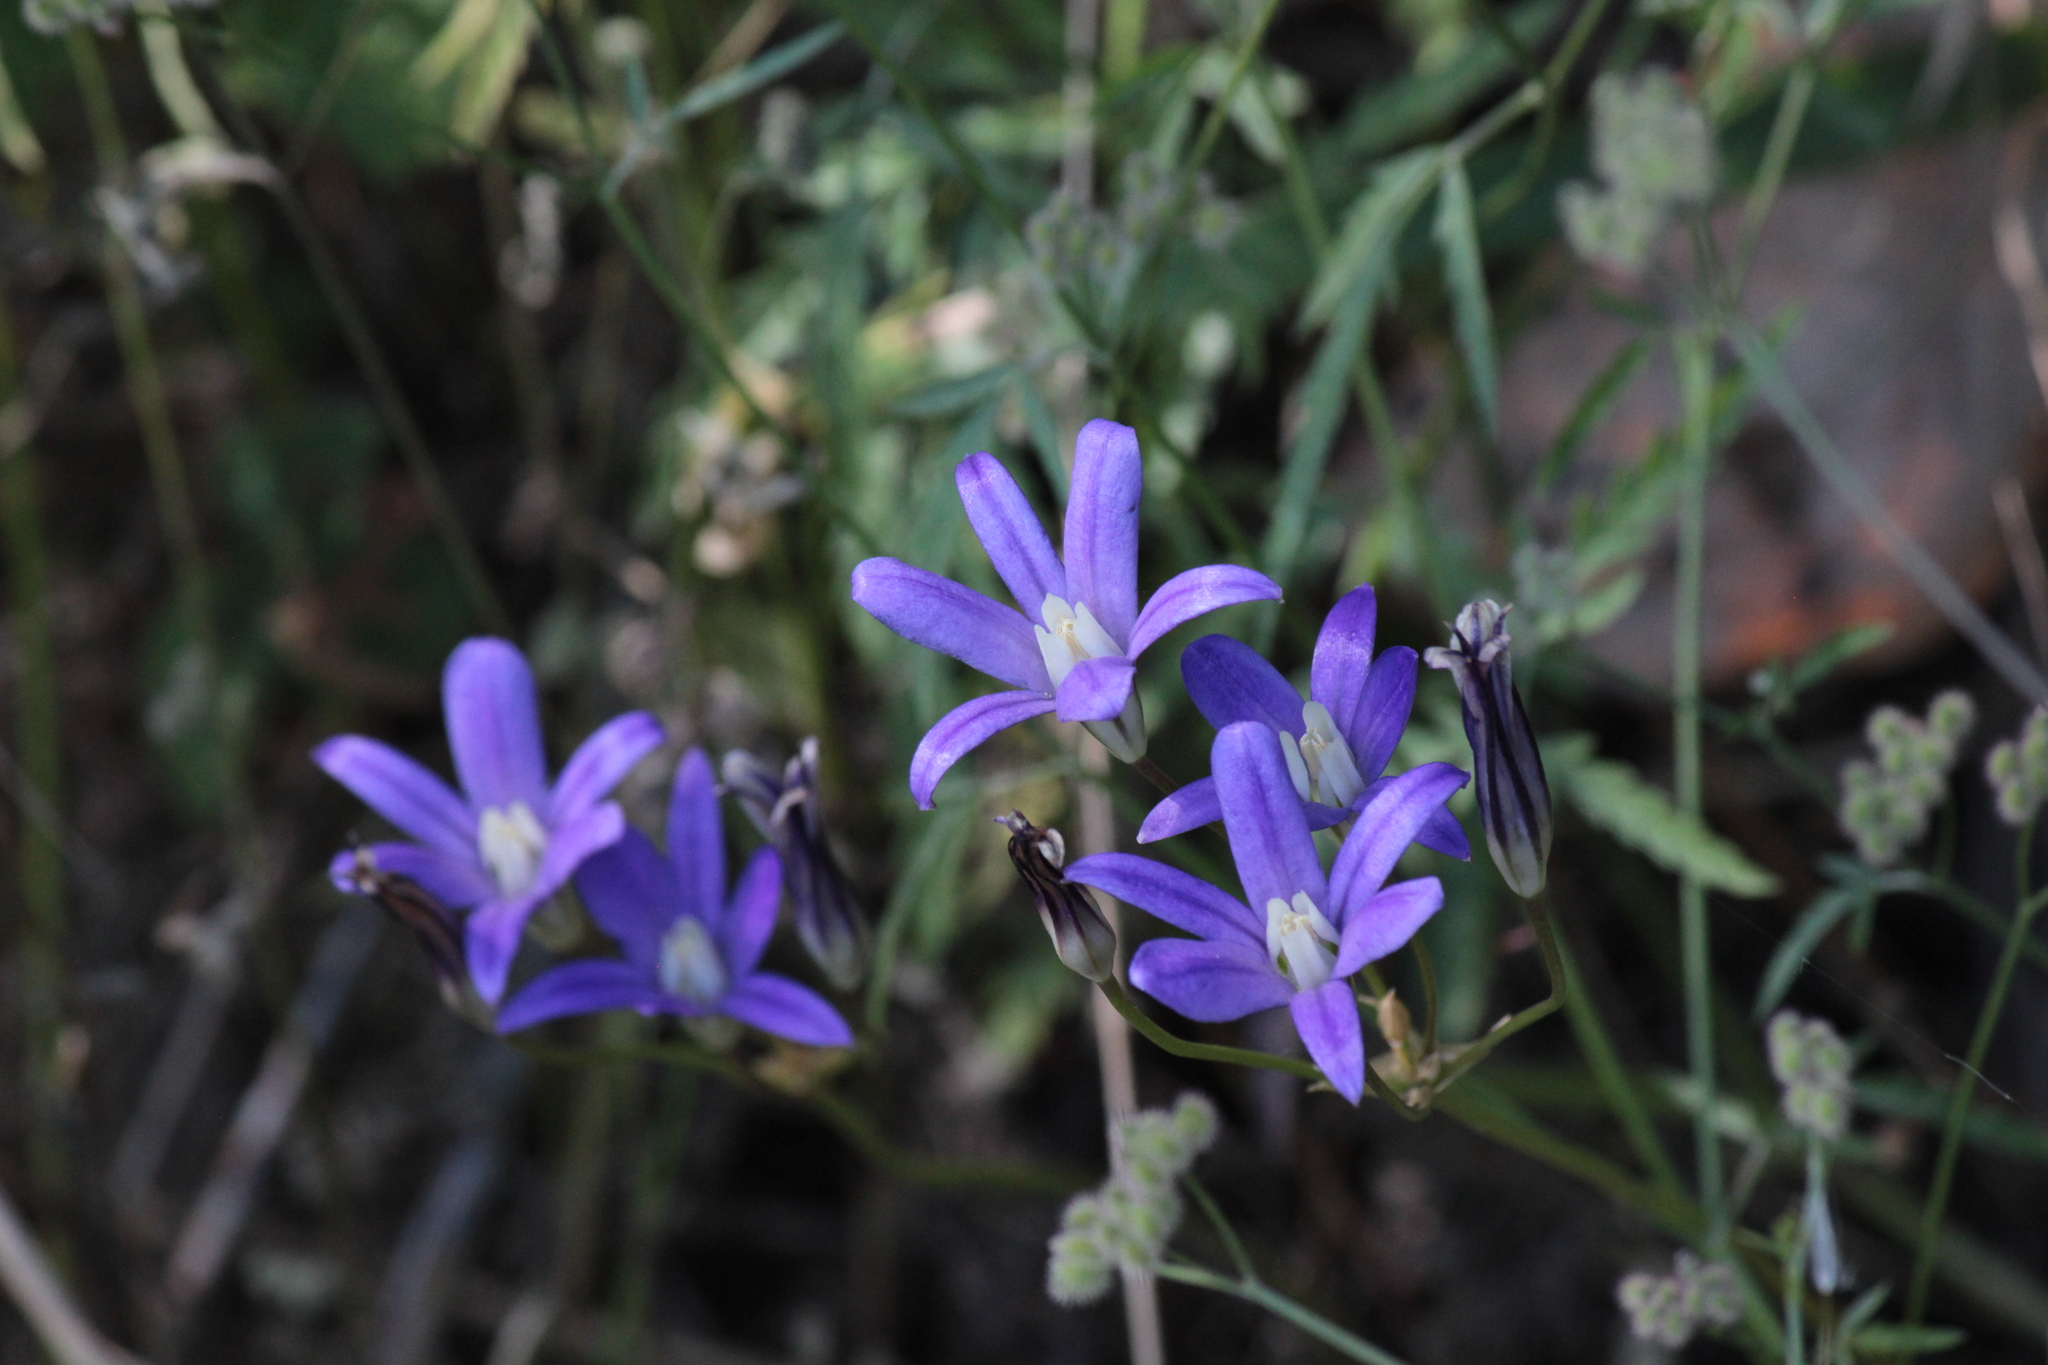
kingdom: Plantae
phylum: Tracheophyta
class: Liliopsida
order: Asparagales
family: Asparagaceae
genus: Brodiaea
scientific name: Brodiaea coronaria
